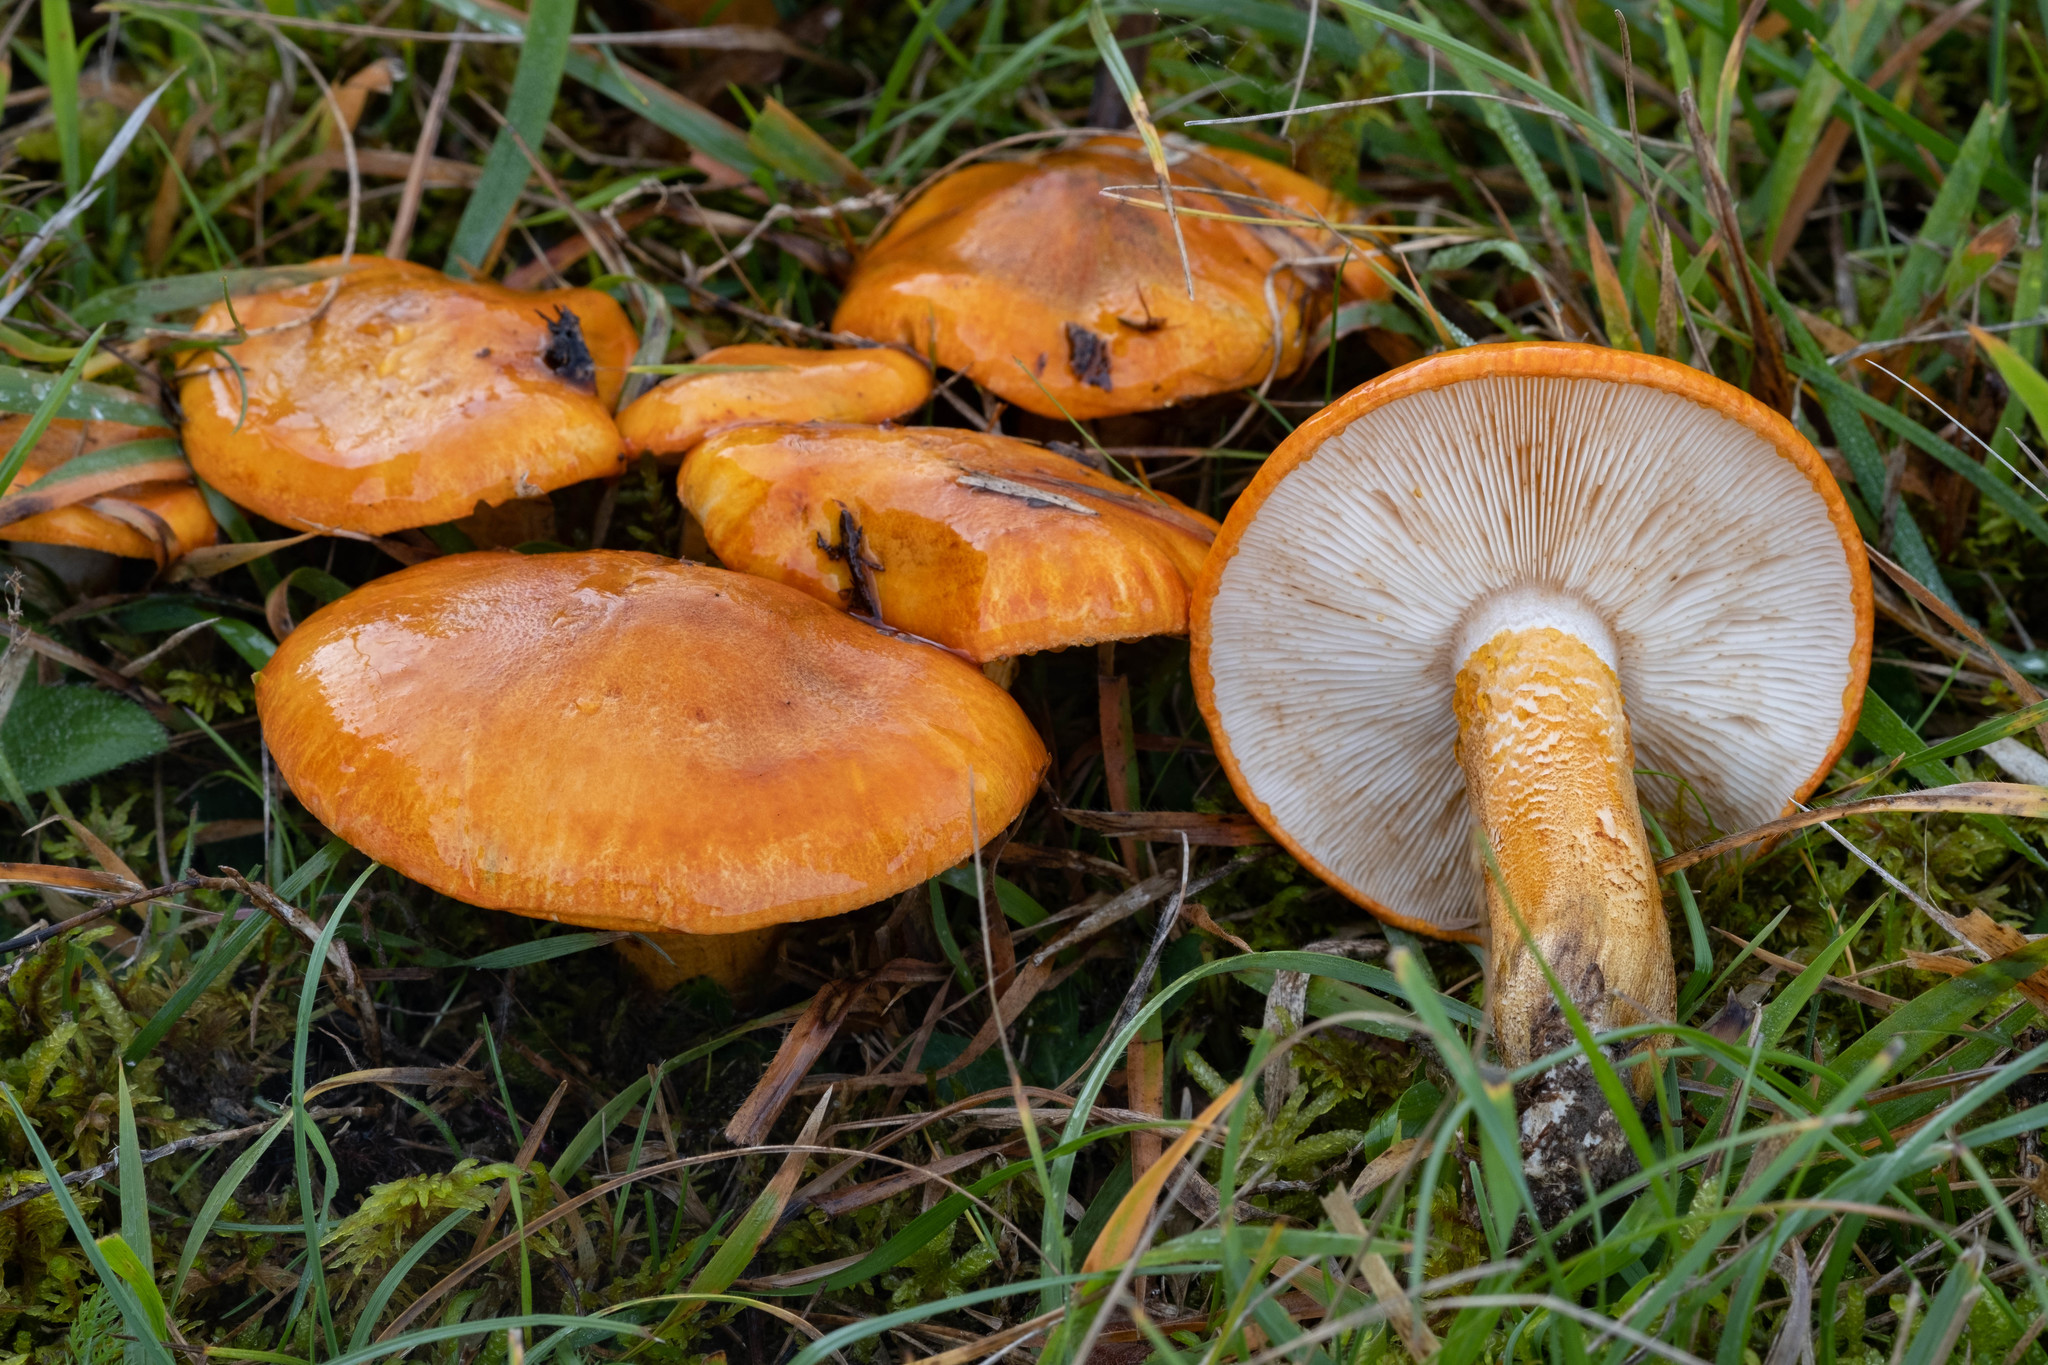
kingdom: Fungi
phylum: Basidiomycota
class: Agaricomycetes
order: Agaricales
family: Tricholomataceae
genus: Tricholoma
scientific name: Tricholoma aurantium
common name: Orange knight
